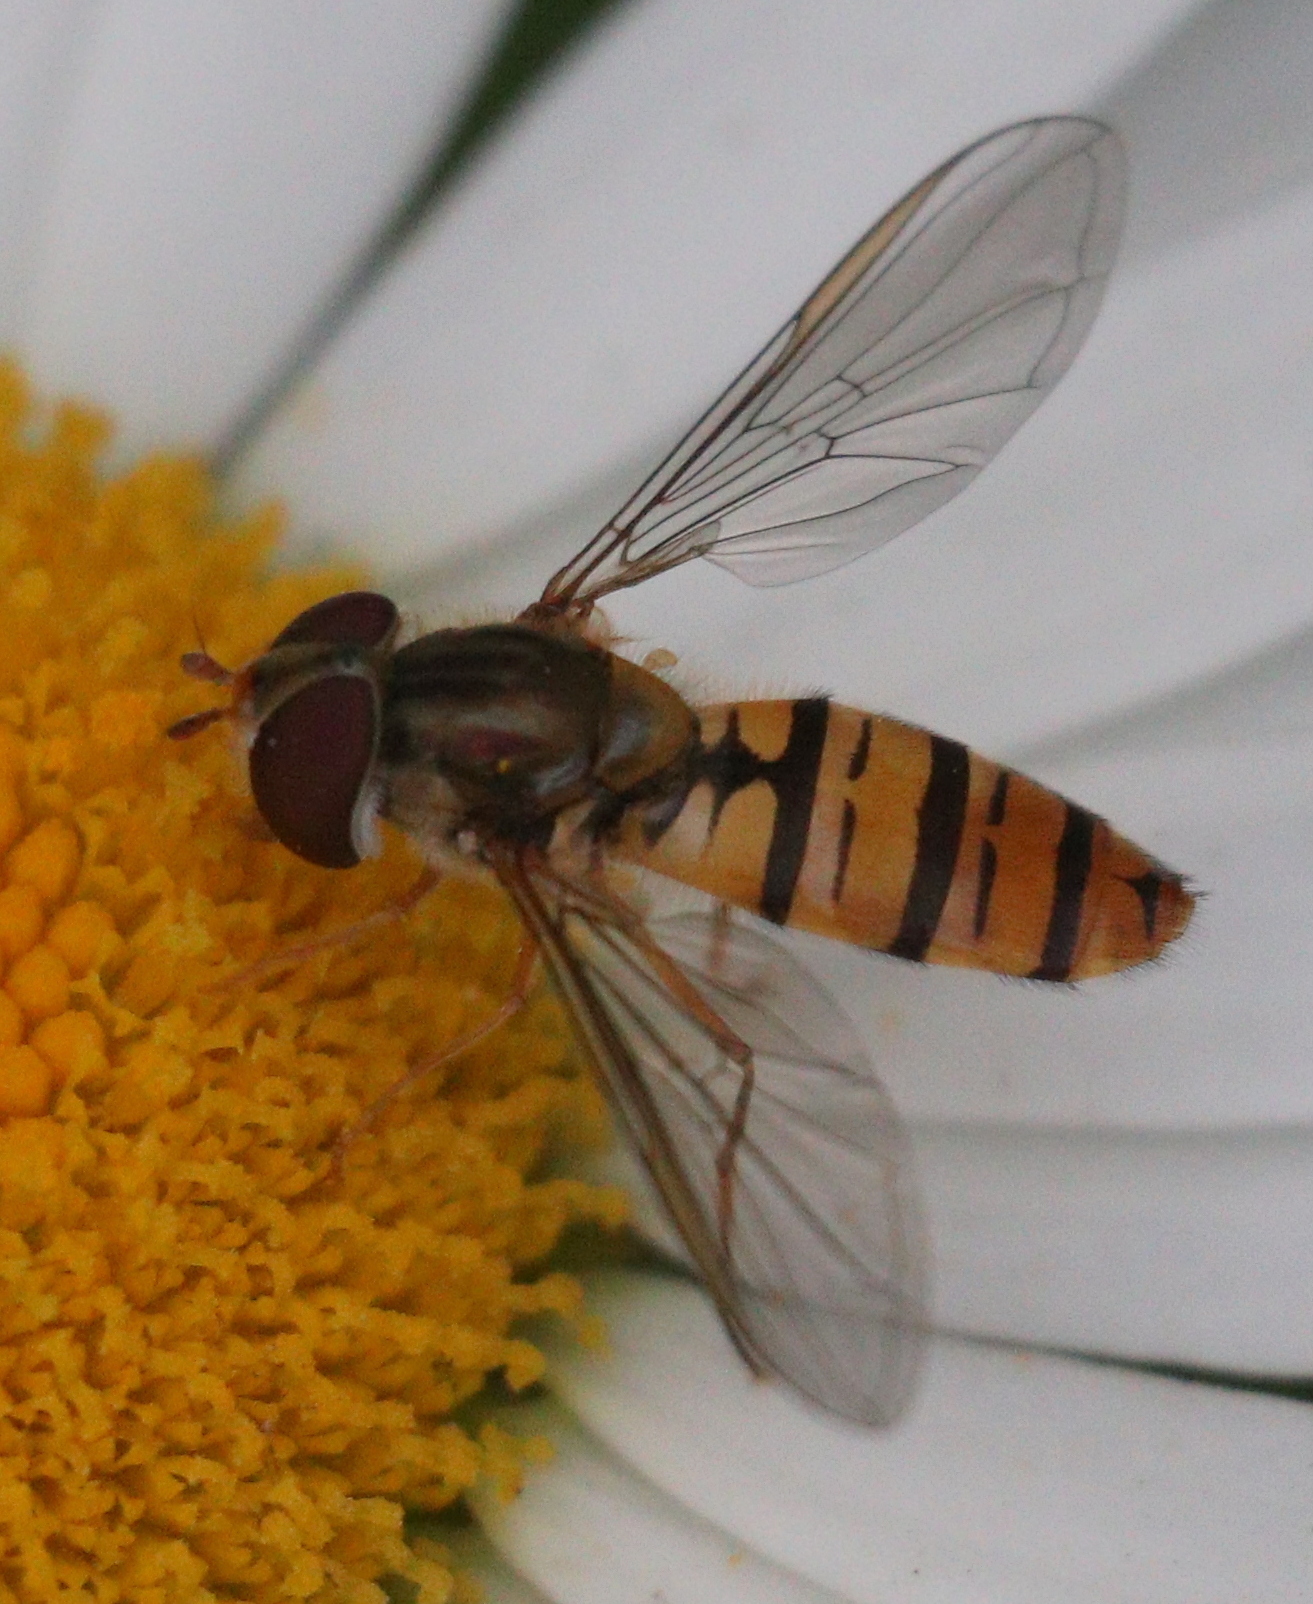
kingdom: Animalia
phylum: Arthropoda
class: Insecta
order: Diptera
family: Syrphidae
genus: Episyrphus
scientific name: Episyrphus balteatus
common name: Marmalade hoverfly
